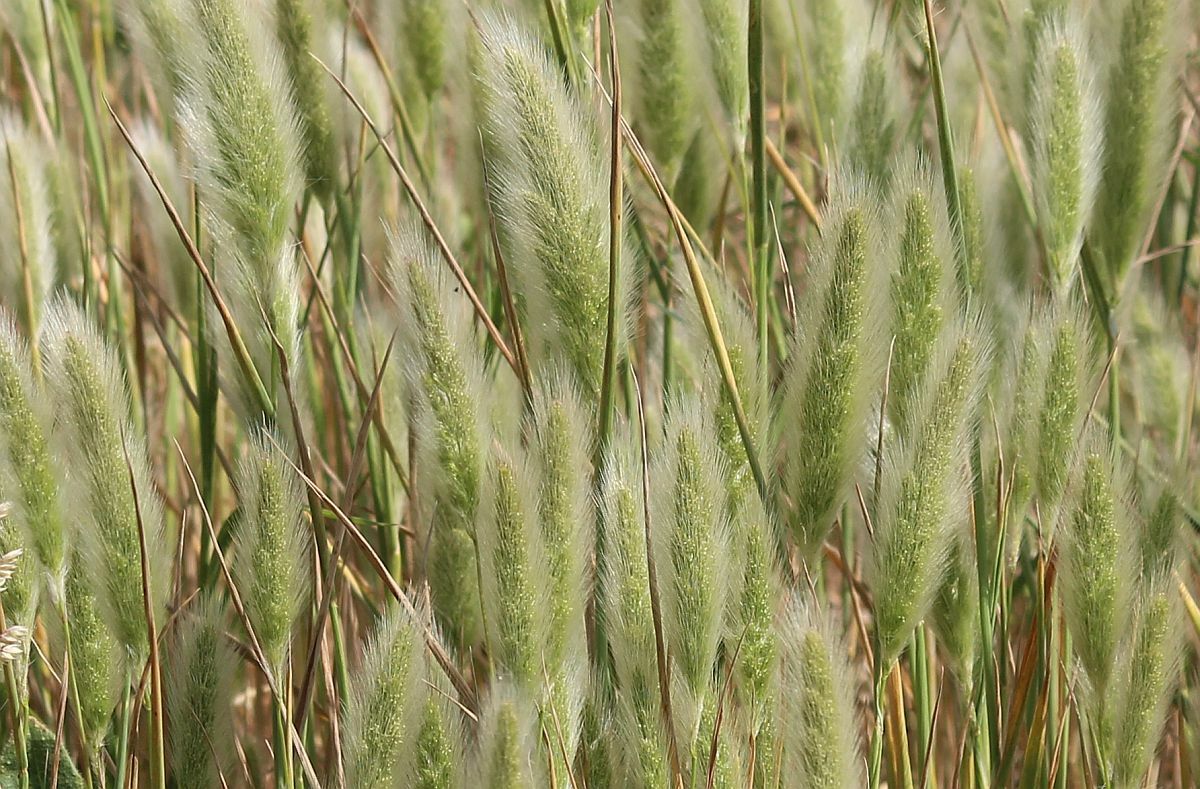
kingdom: Plantae
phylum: Tracheophyta
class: Liliopsida
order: Poales
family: Poaceae
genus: Polypogon
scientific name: Polypogon monspeliensis
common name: Annual rabbitsfoot grass
